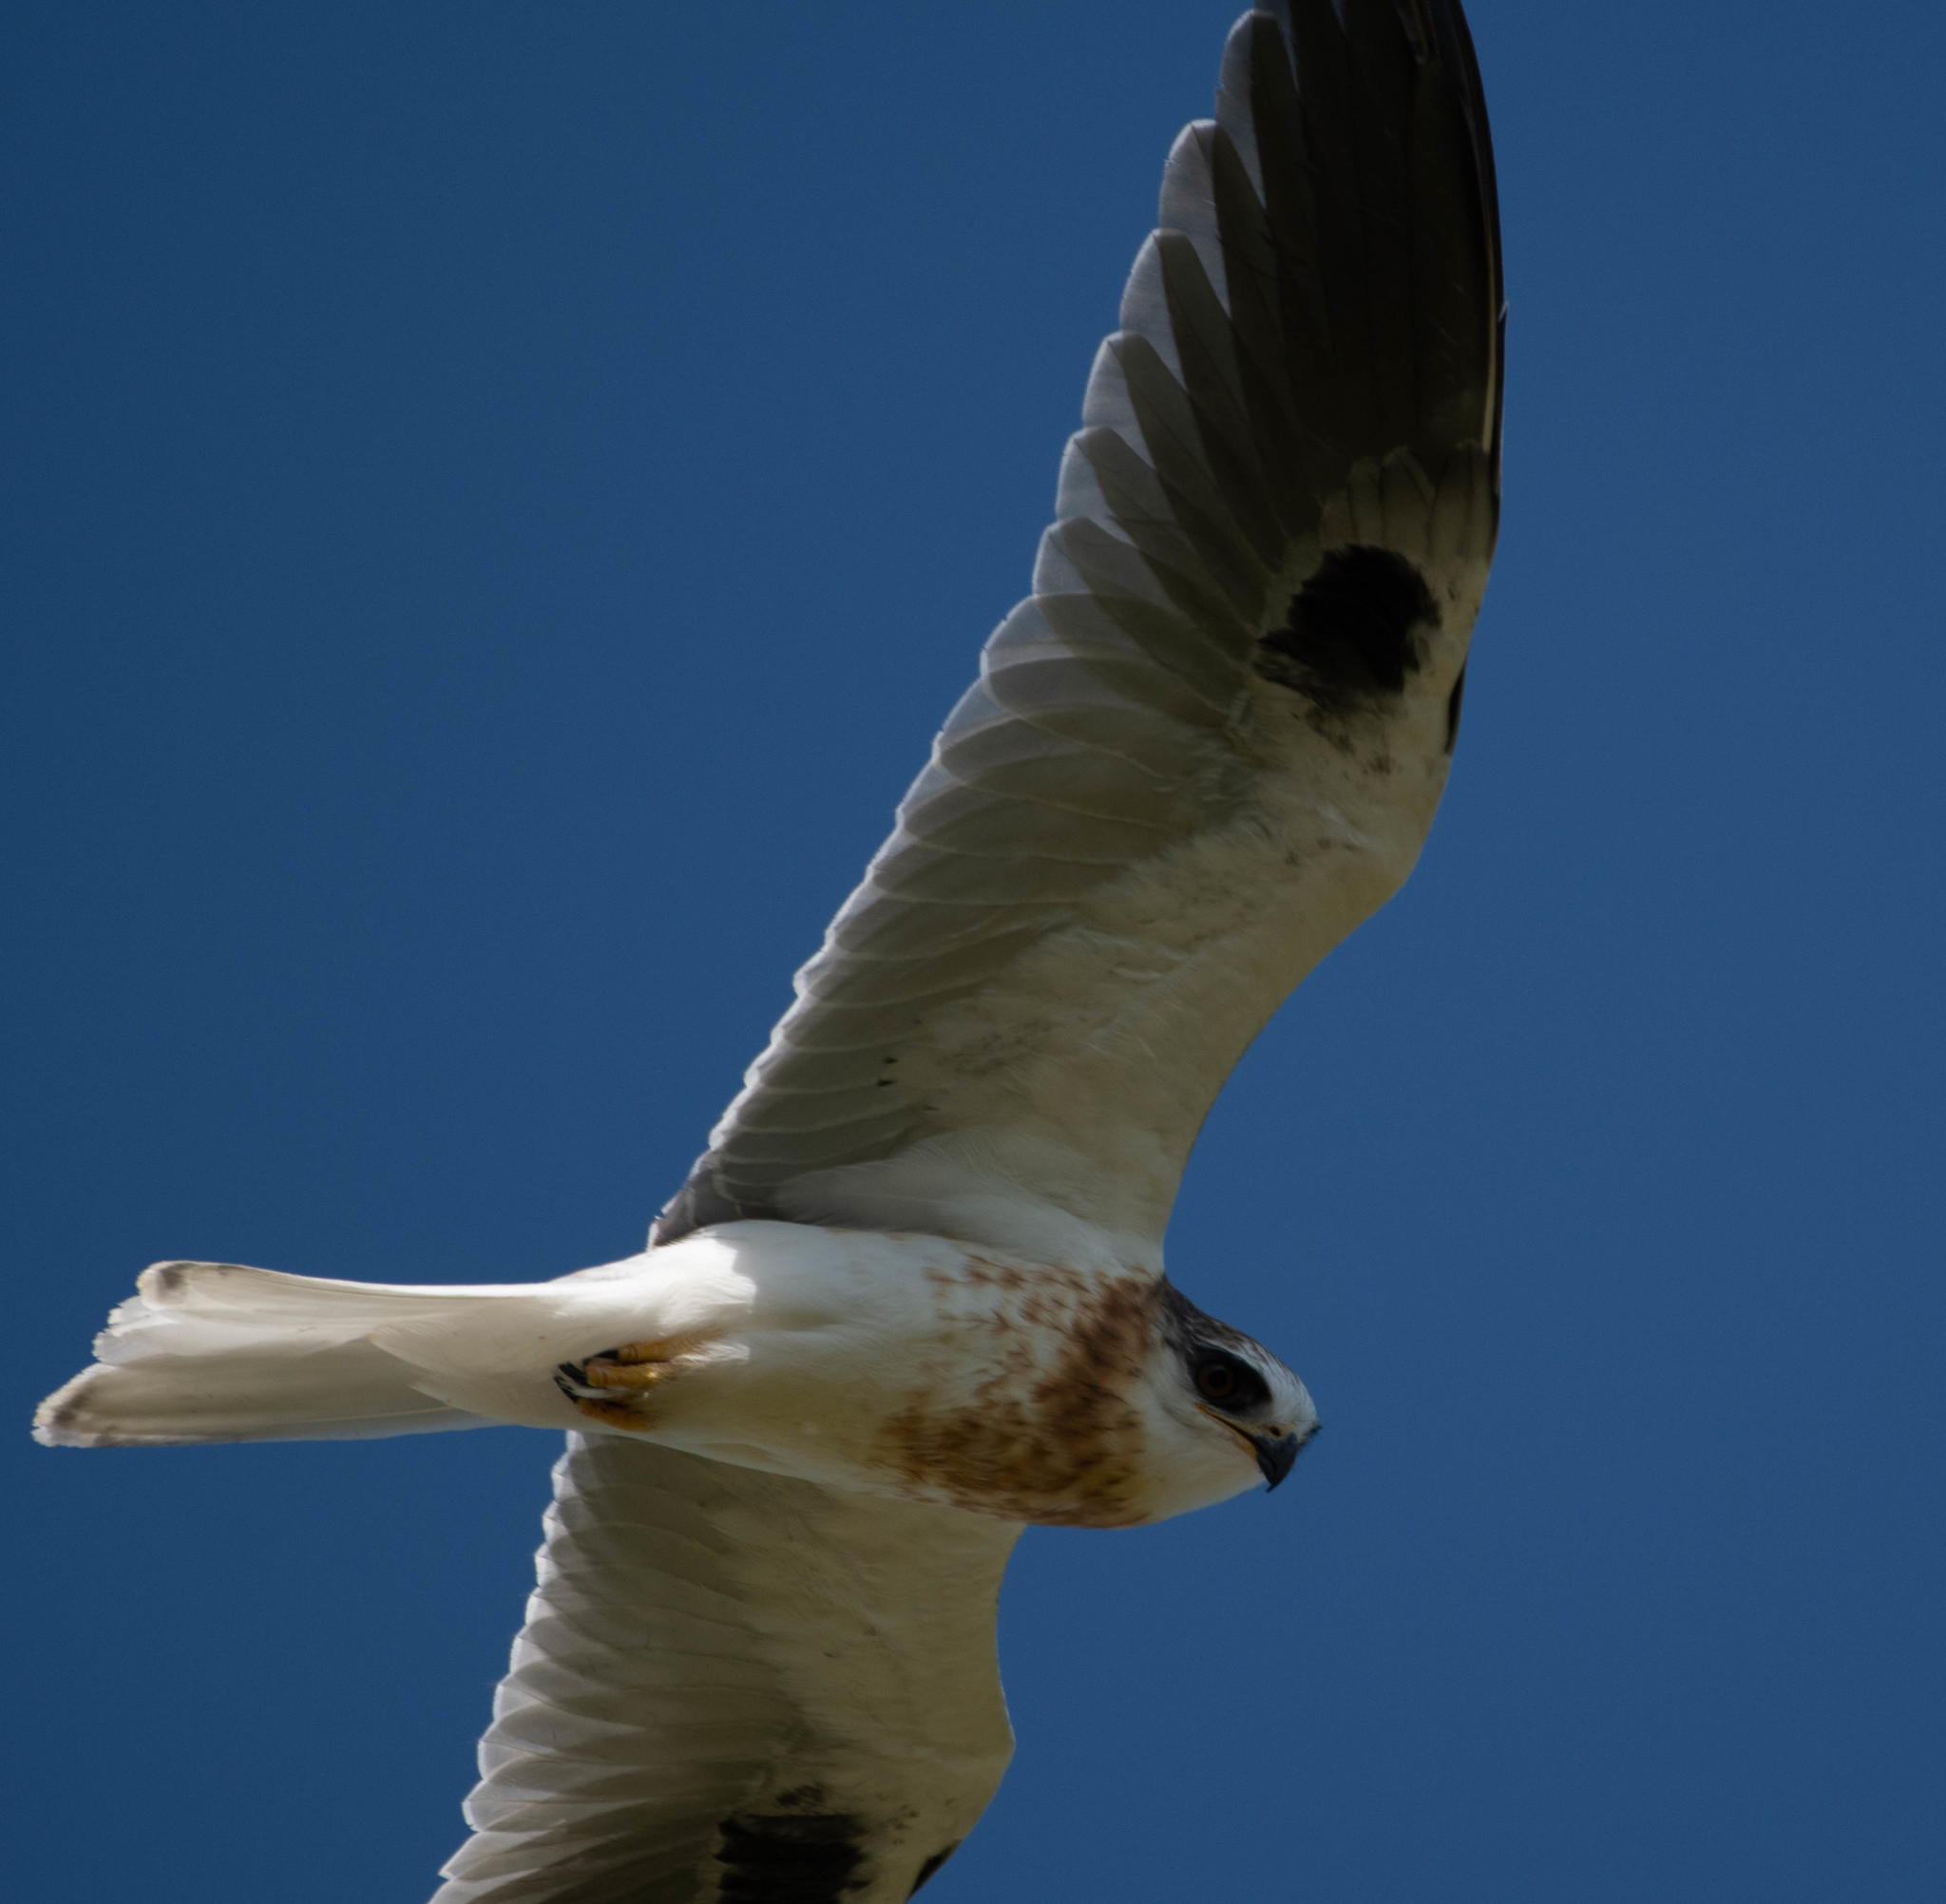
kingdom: Animalia
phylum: Chordata
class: Aves
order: Accipitriformes
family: Accipitridae
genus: Elanus
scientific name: Elanus leucurus
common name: White-tailed kite
